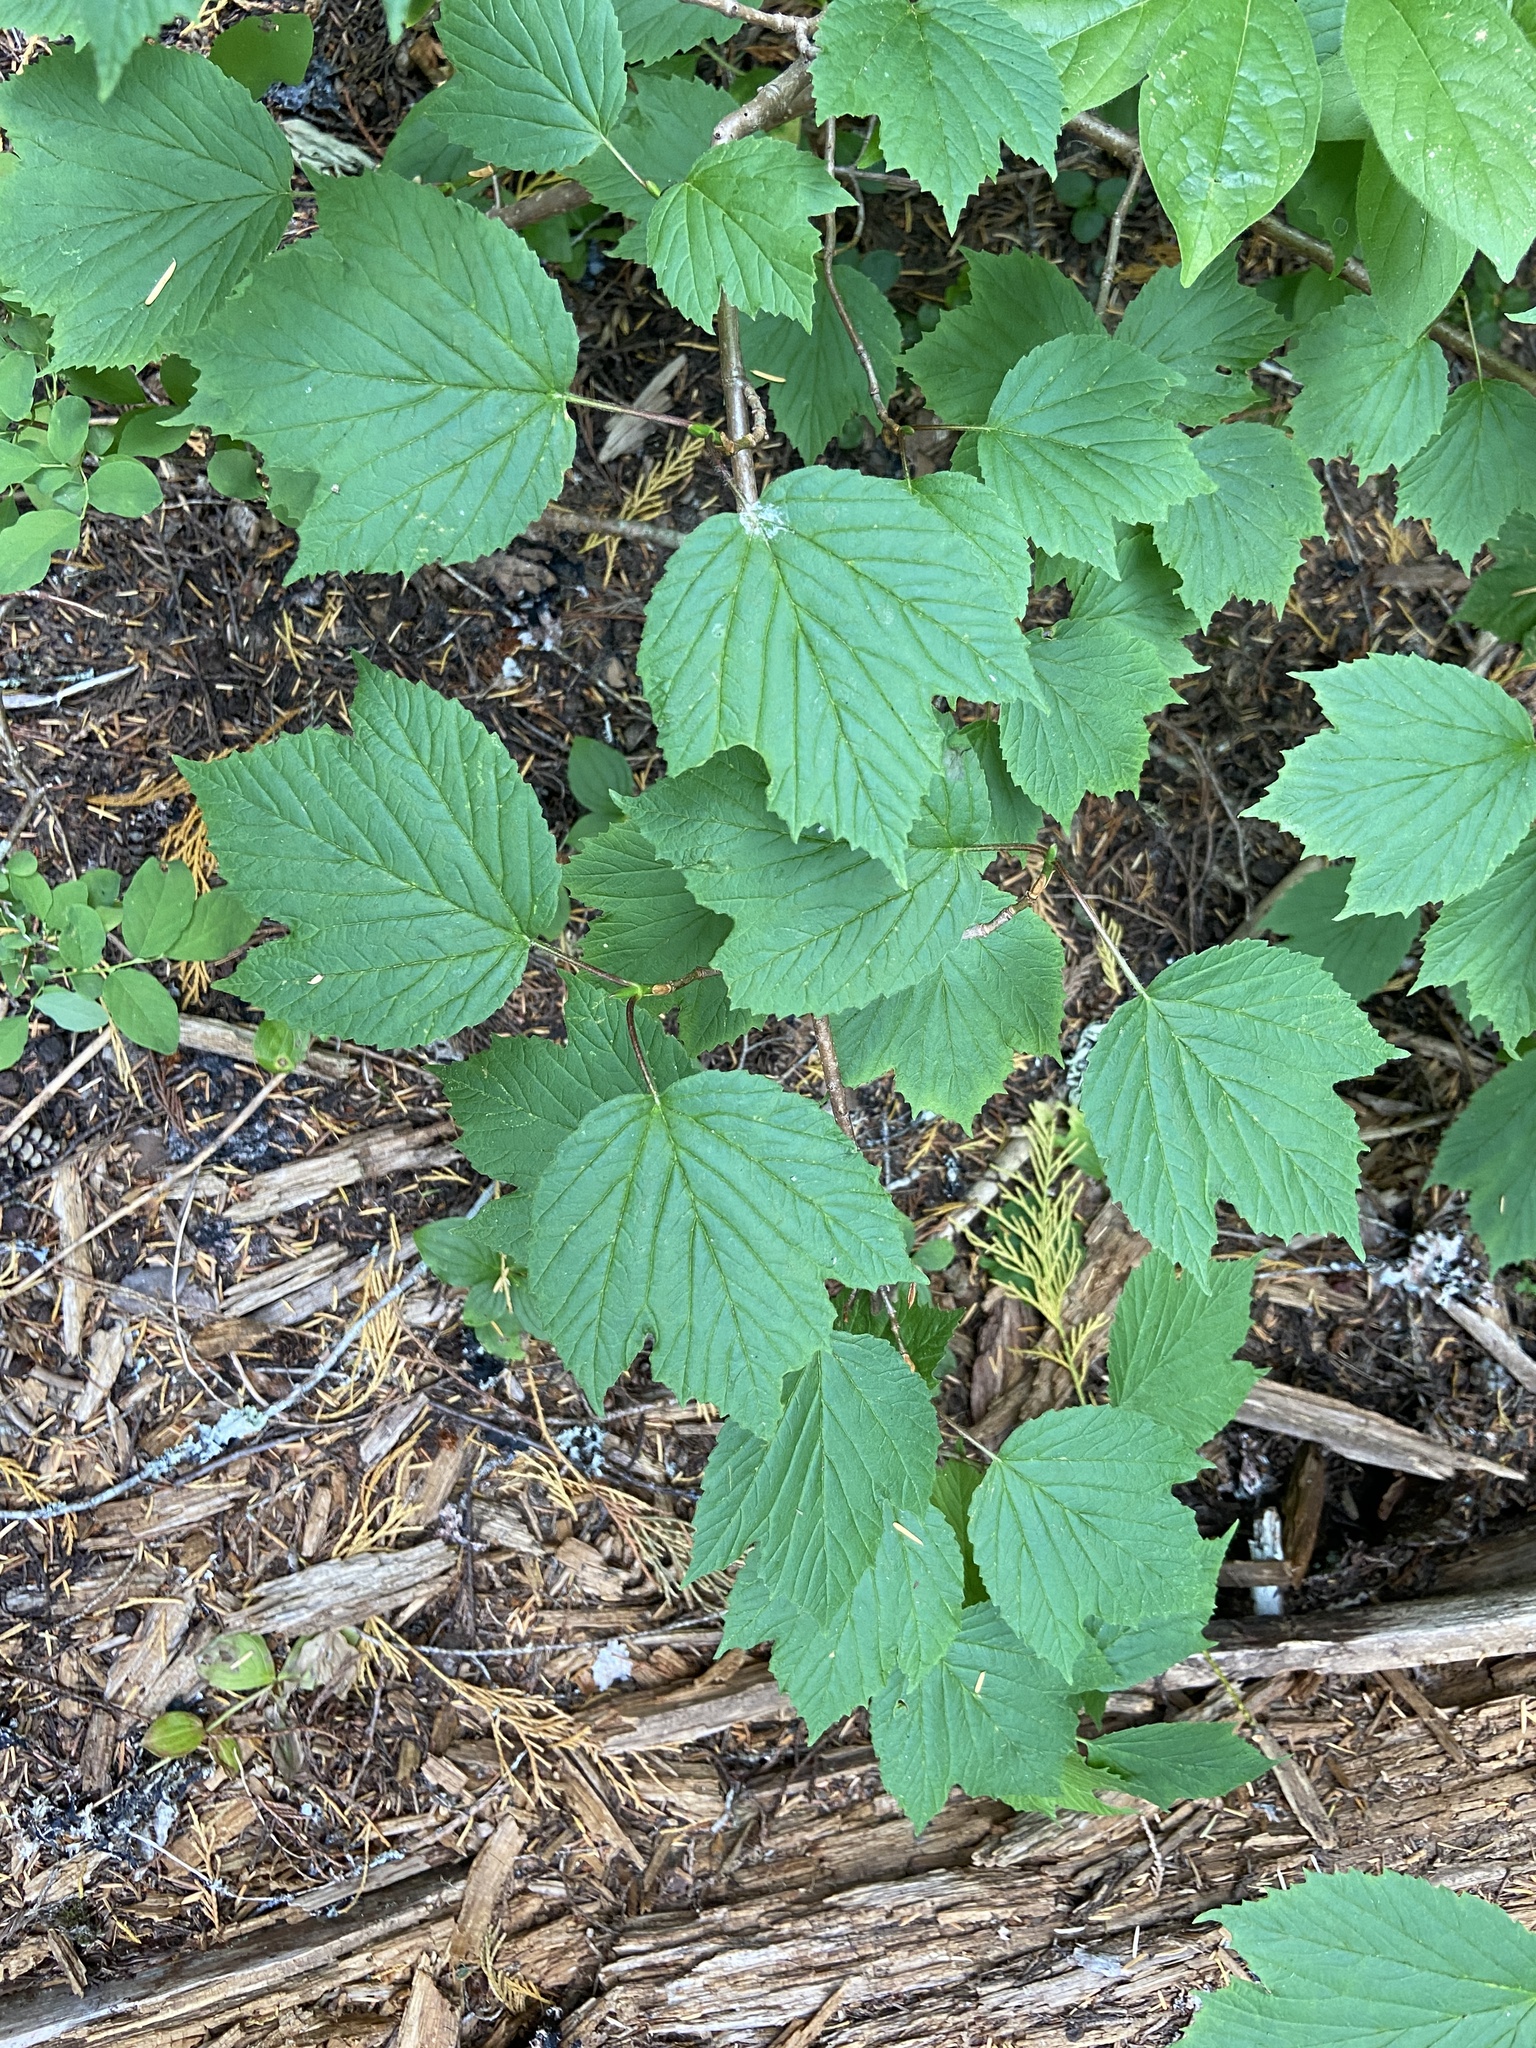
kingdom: Plantae
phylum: Tracheophyta
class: Magnoliopsida
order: Dipsacales
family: Viburnaceae
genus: Viburnum
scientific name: Viburnum edule
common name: Mooseberry
